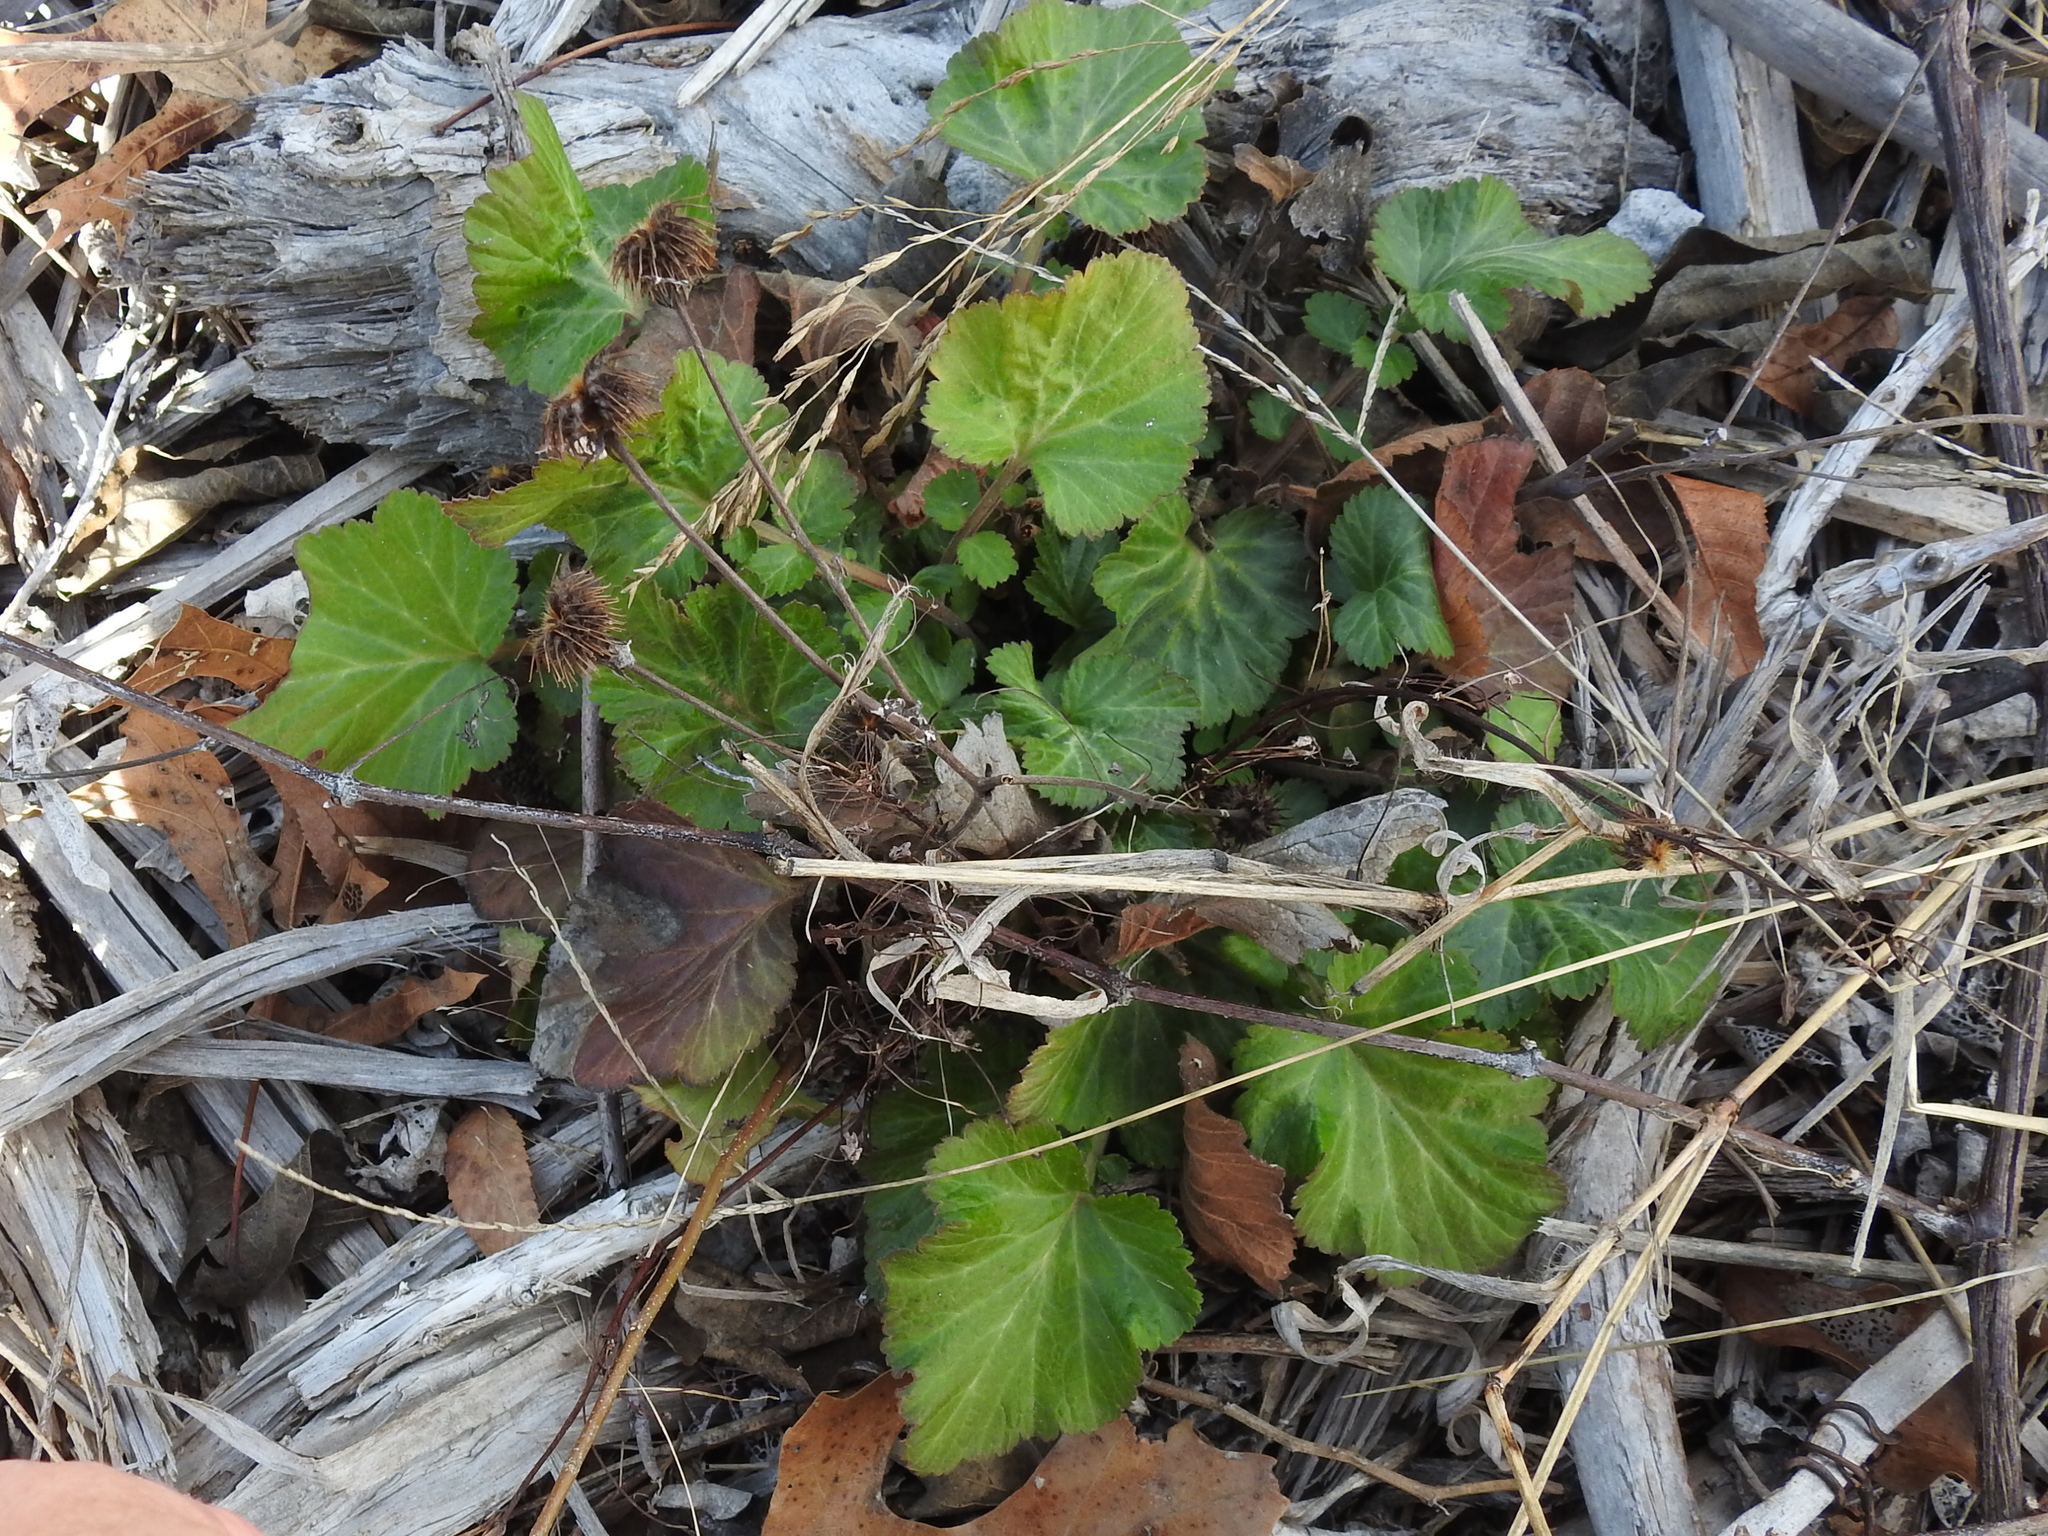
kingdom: Plantae
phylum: Tracheophyta
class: Magnoliopsida
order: Rosales
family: Rosaceae
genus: Geum
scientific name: Geum canadense
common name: White avens
